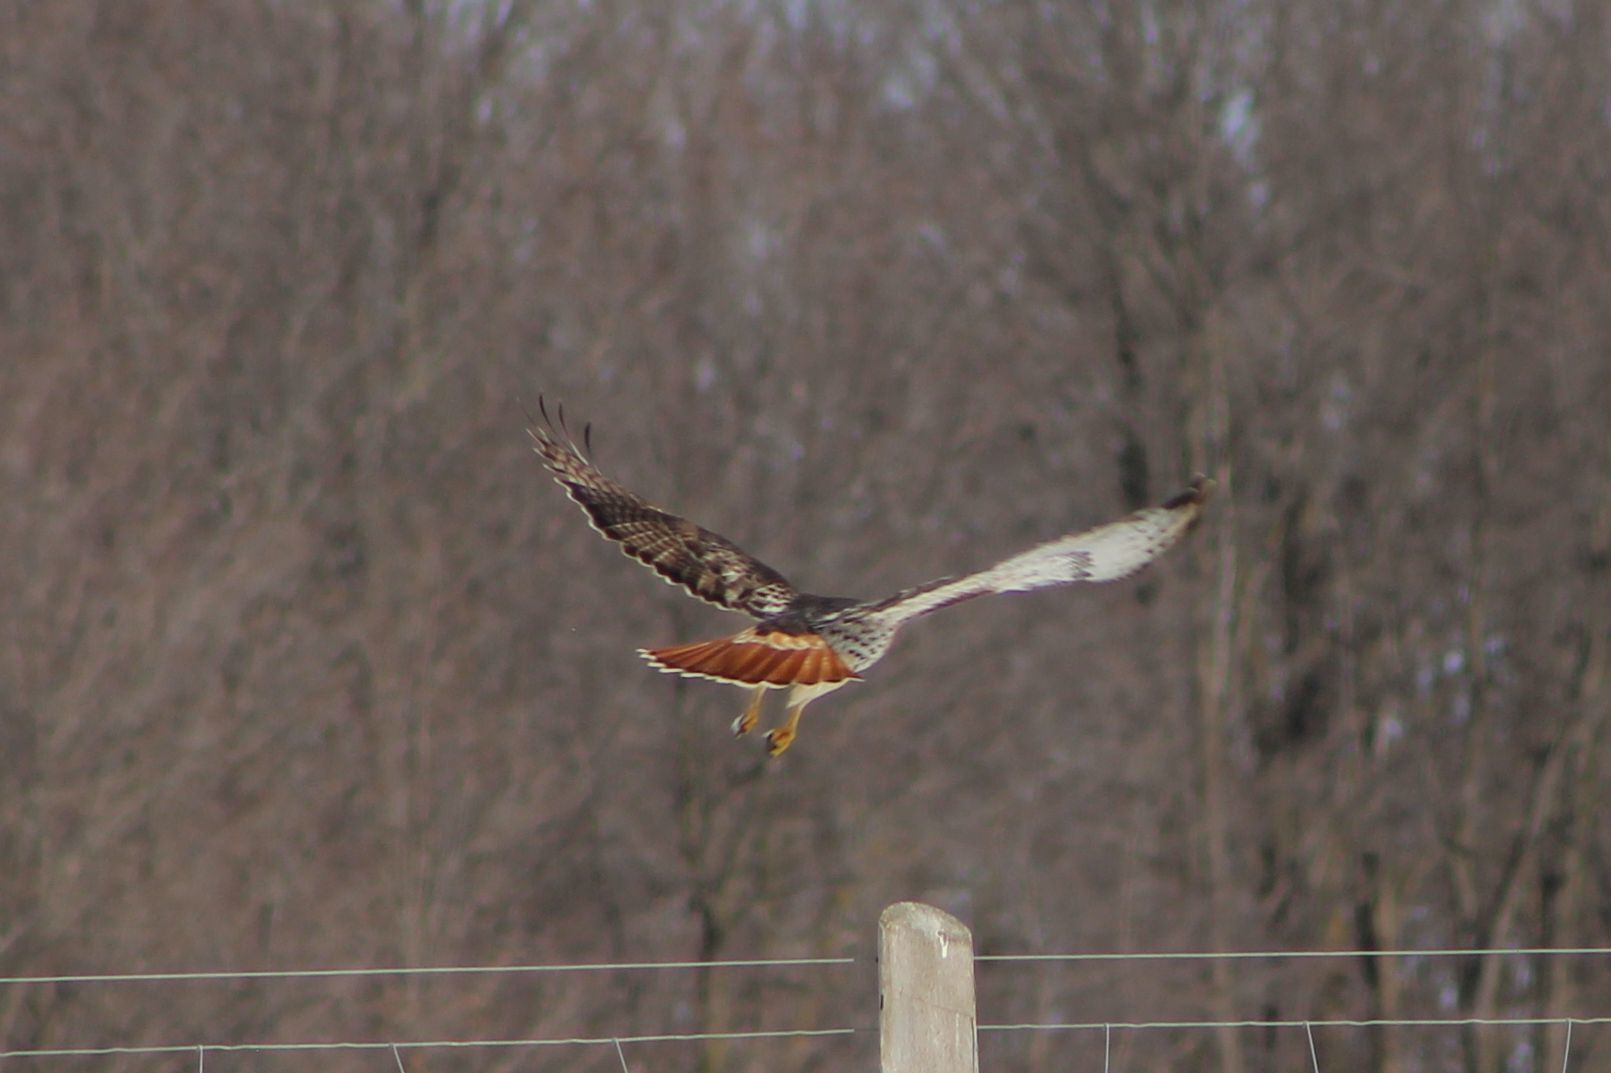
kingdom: Animalia
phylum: Chordata
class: Aves
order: Accipitriformes
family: Accipitridae
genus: Buteo
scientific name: Buteo jamaicensis
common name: Red-tailed hawk
